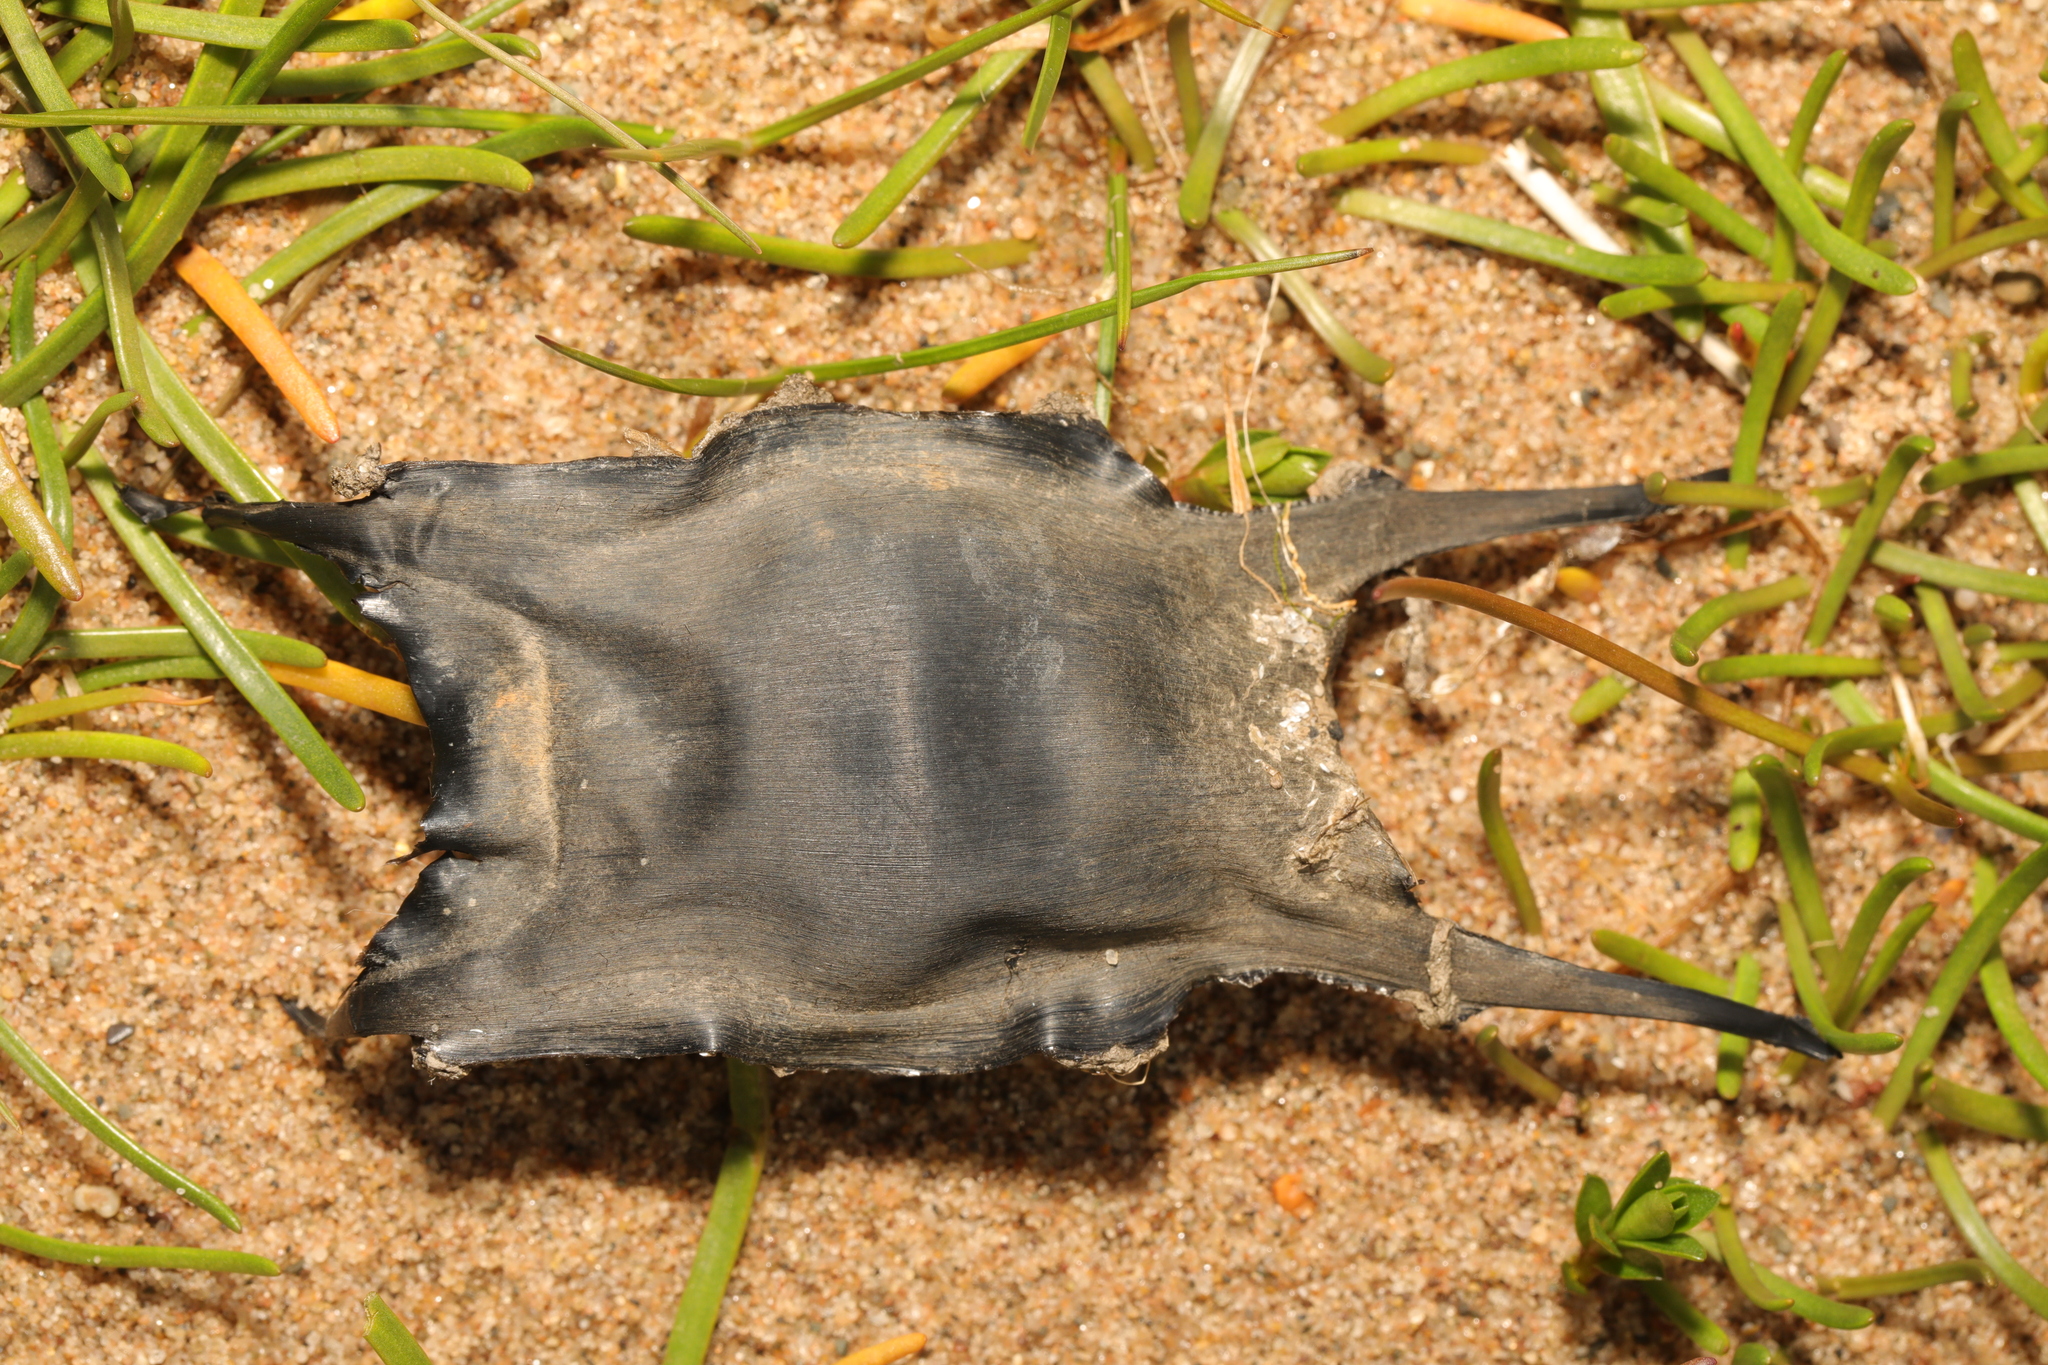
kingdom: Animalia
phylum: Chordata
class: Elasmobranchii
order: Rajiformes
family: Rajidae
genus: Raja
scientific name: Raja clavata
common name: Thornback ray
